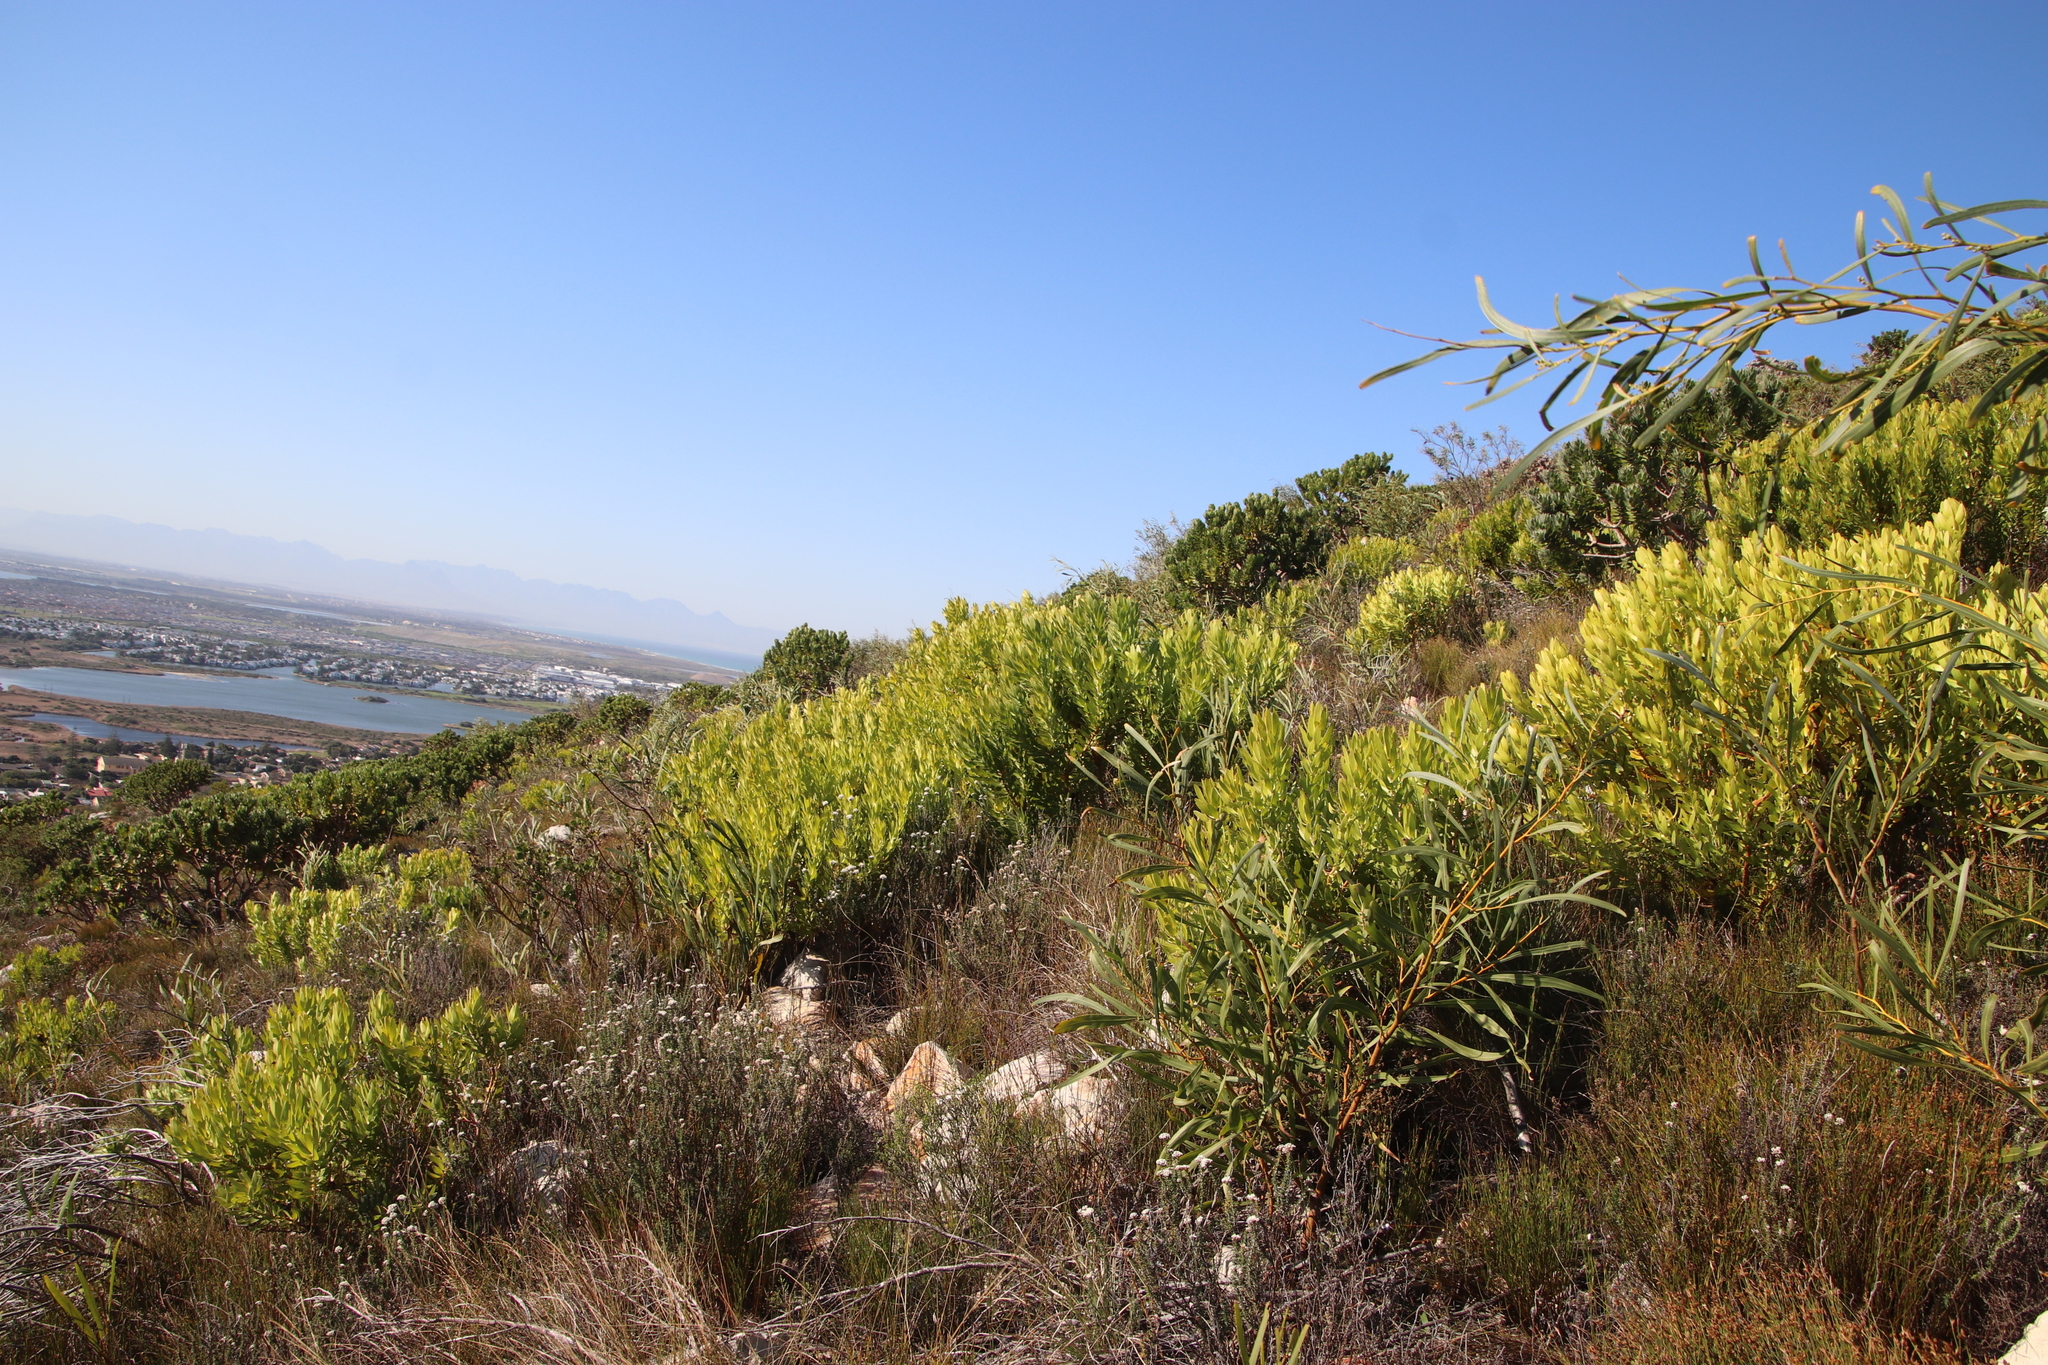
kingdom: Plantae
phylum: Tracheophyta
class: Magnoliopsida
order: Fabales
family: Fabaceae
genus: Acacia
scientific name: Acacia saligna
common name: Orange wattle
